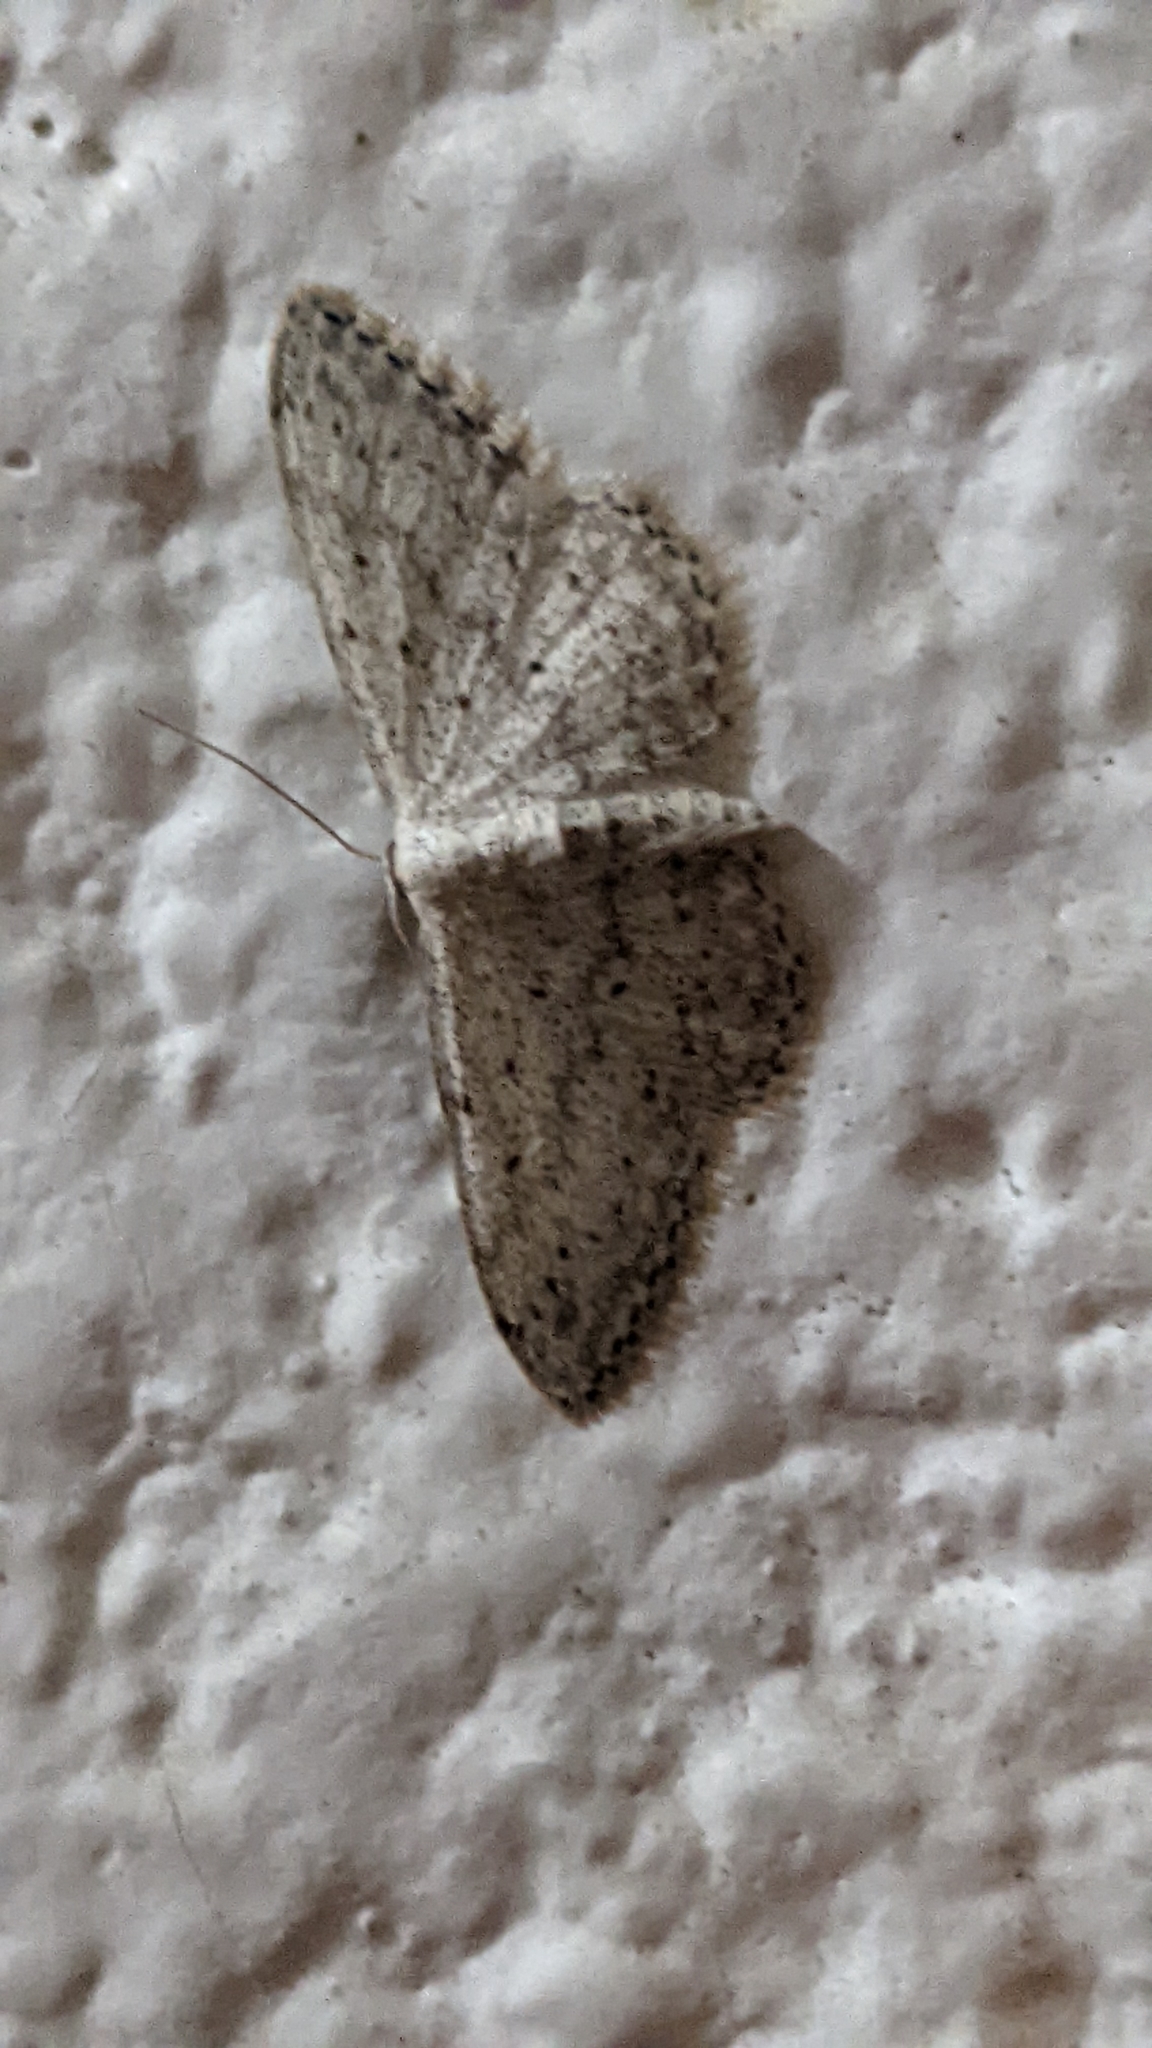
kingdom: Animalia
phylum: Arthropoda
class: Insecta
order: Lepidoptera
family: Geometridae
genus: Idaea
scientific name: Idaea seriata
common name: Small dusty wave
